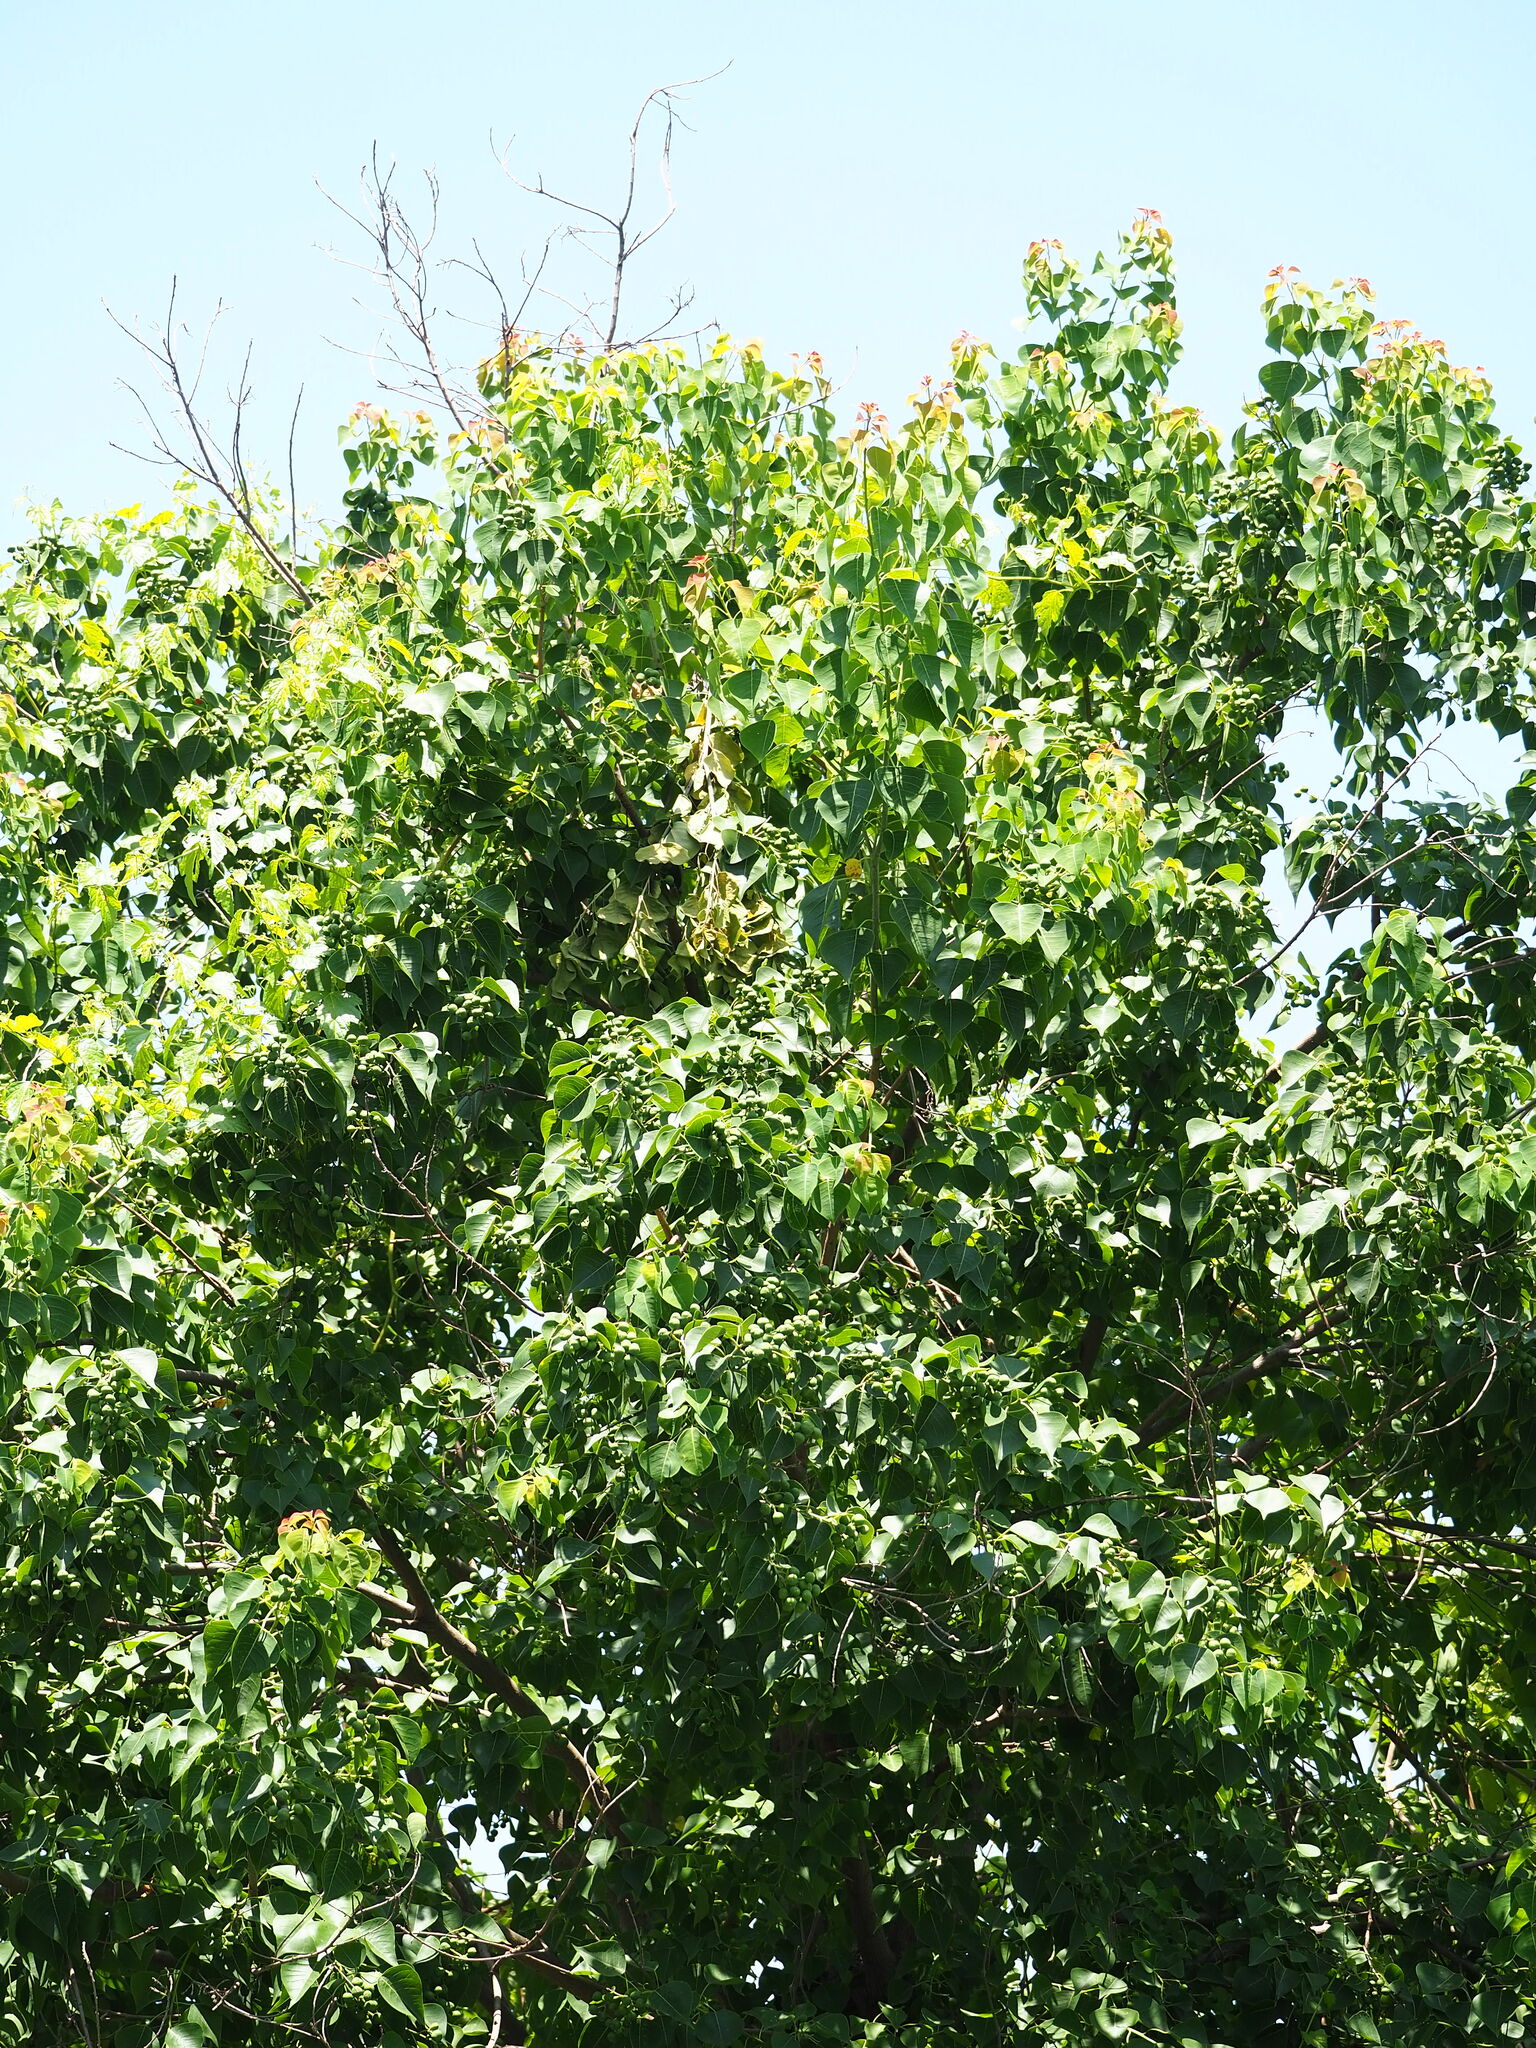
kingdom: Plantae
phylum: Tracheophyta
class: Magnoliopsida
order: Malpighiales
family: Euphorbiaceae
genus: Triadica
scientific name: Triadica sebifera
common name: Chinese tallow
